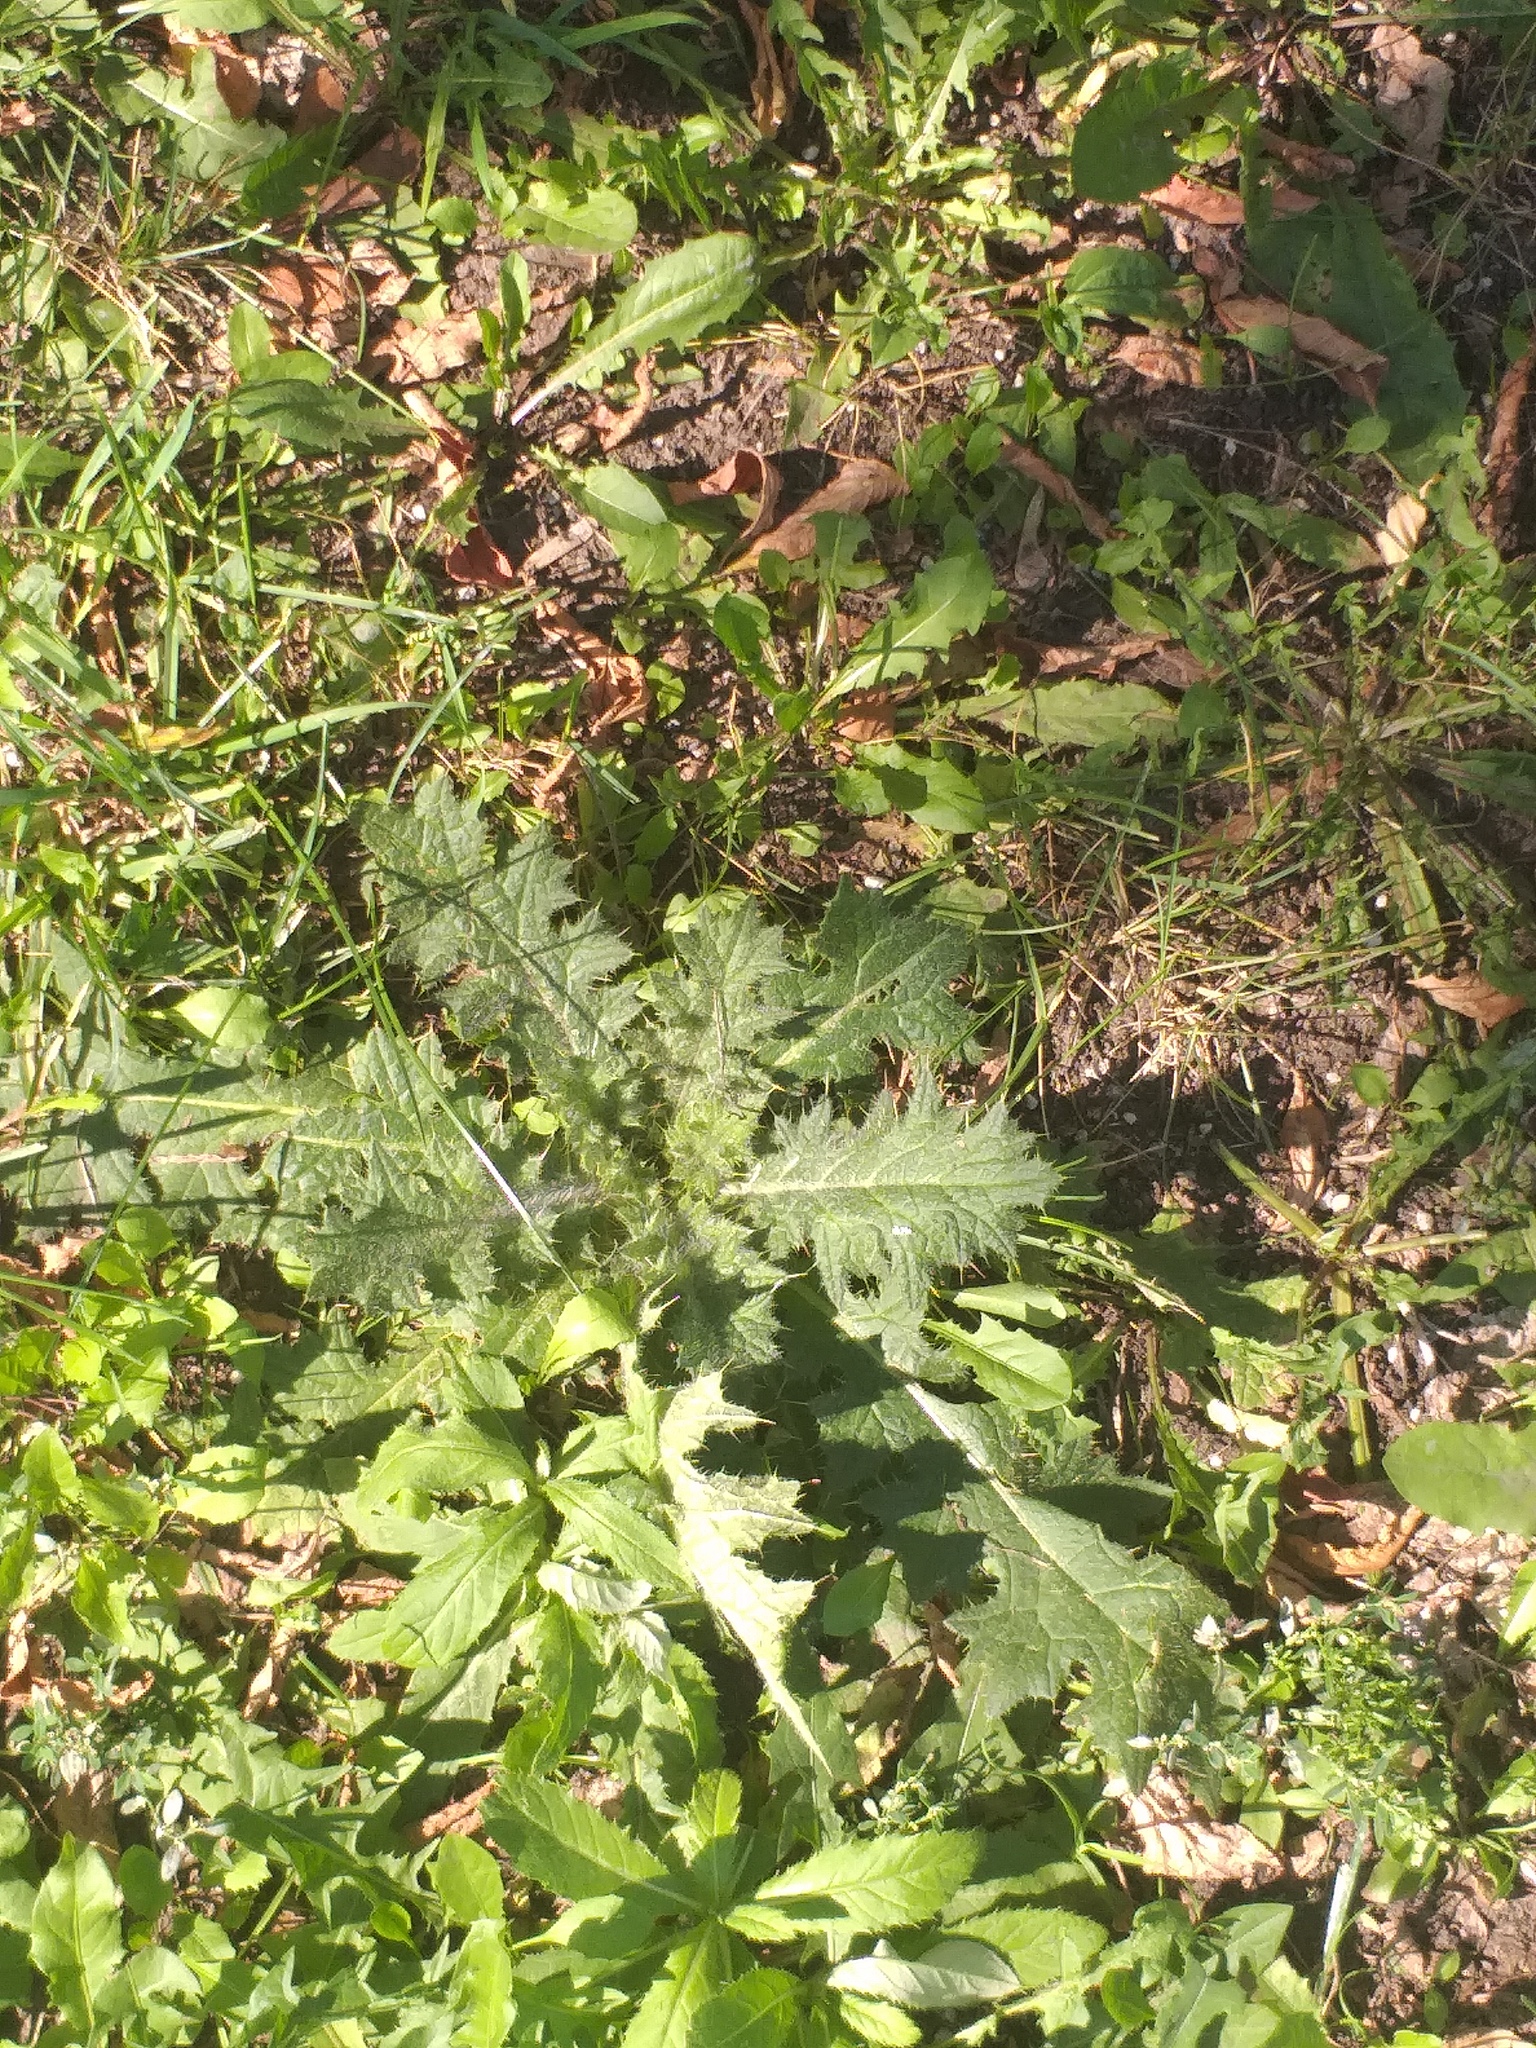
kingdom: Plantae
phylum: Tracheophyta
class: Magnoliopsida
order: Asterales
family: Asteraceae
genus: Cirsium
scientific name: Cirsium vulgare
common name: Bull thistle
